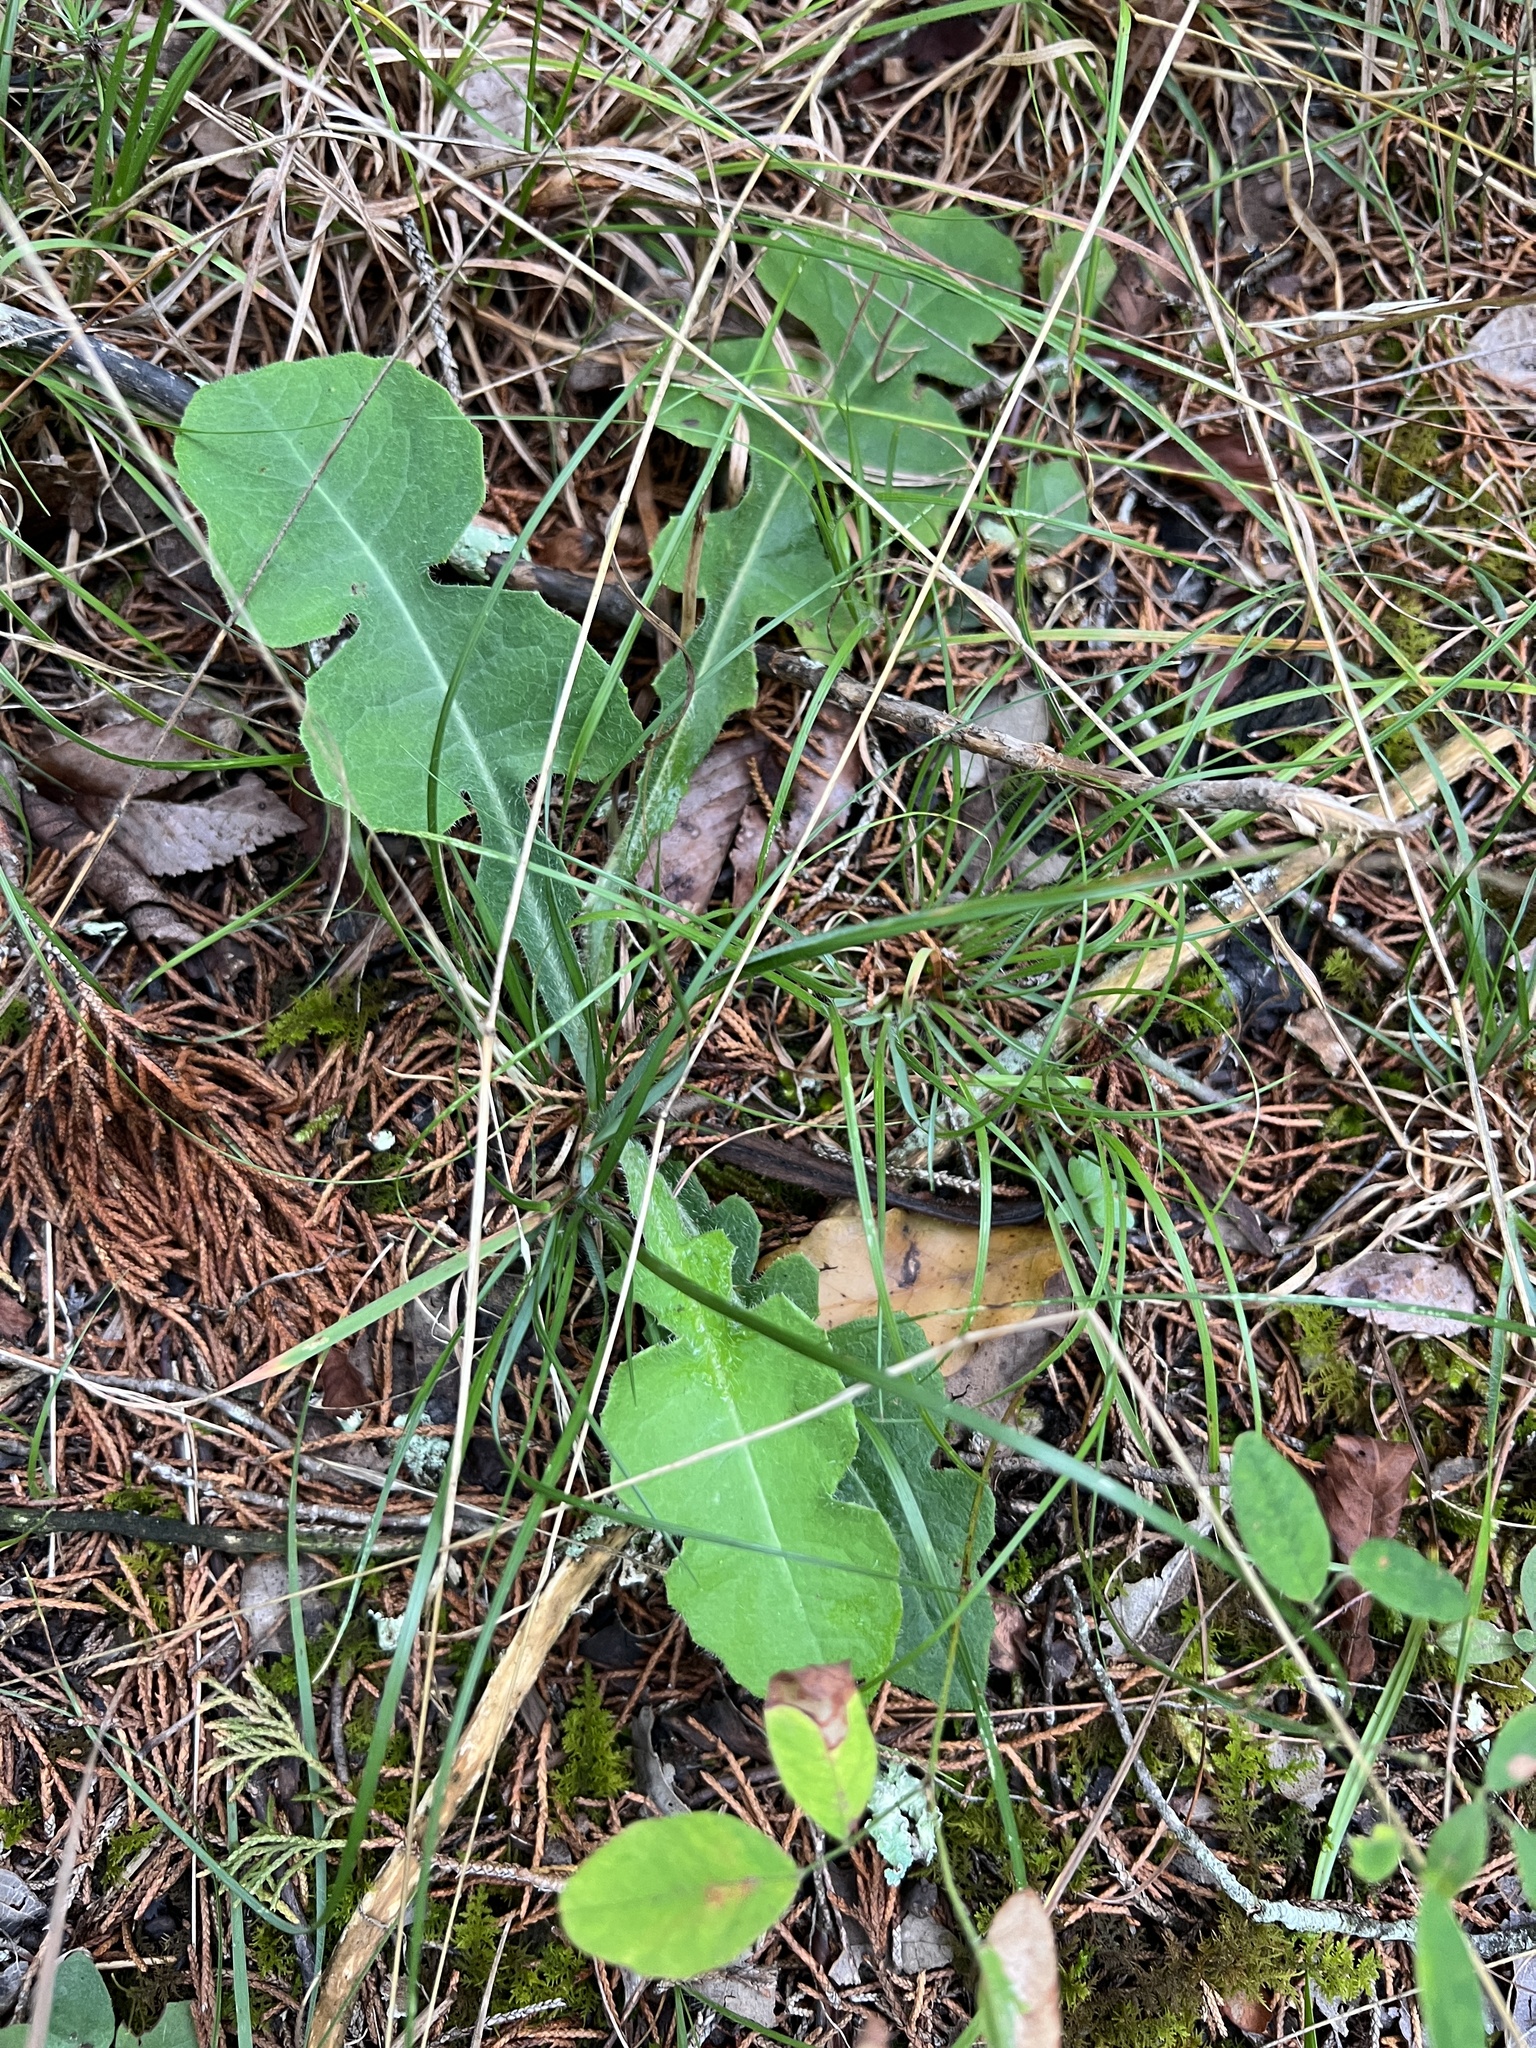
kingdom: Plantae
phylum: Tracheophyta
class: Magnoliopsida
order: Asterales
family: Asteraceae
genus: Lactuca
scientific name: Lactuca hirsuta
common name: Hairy lettuce
